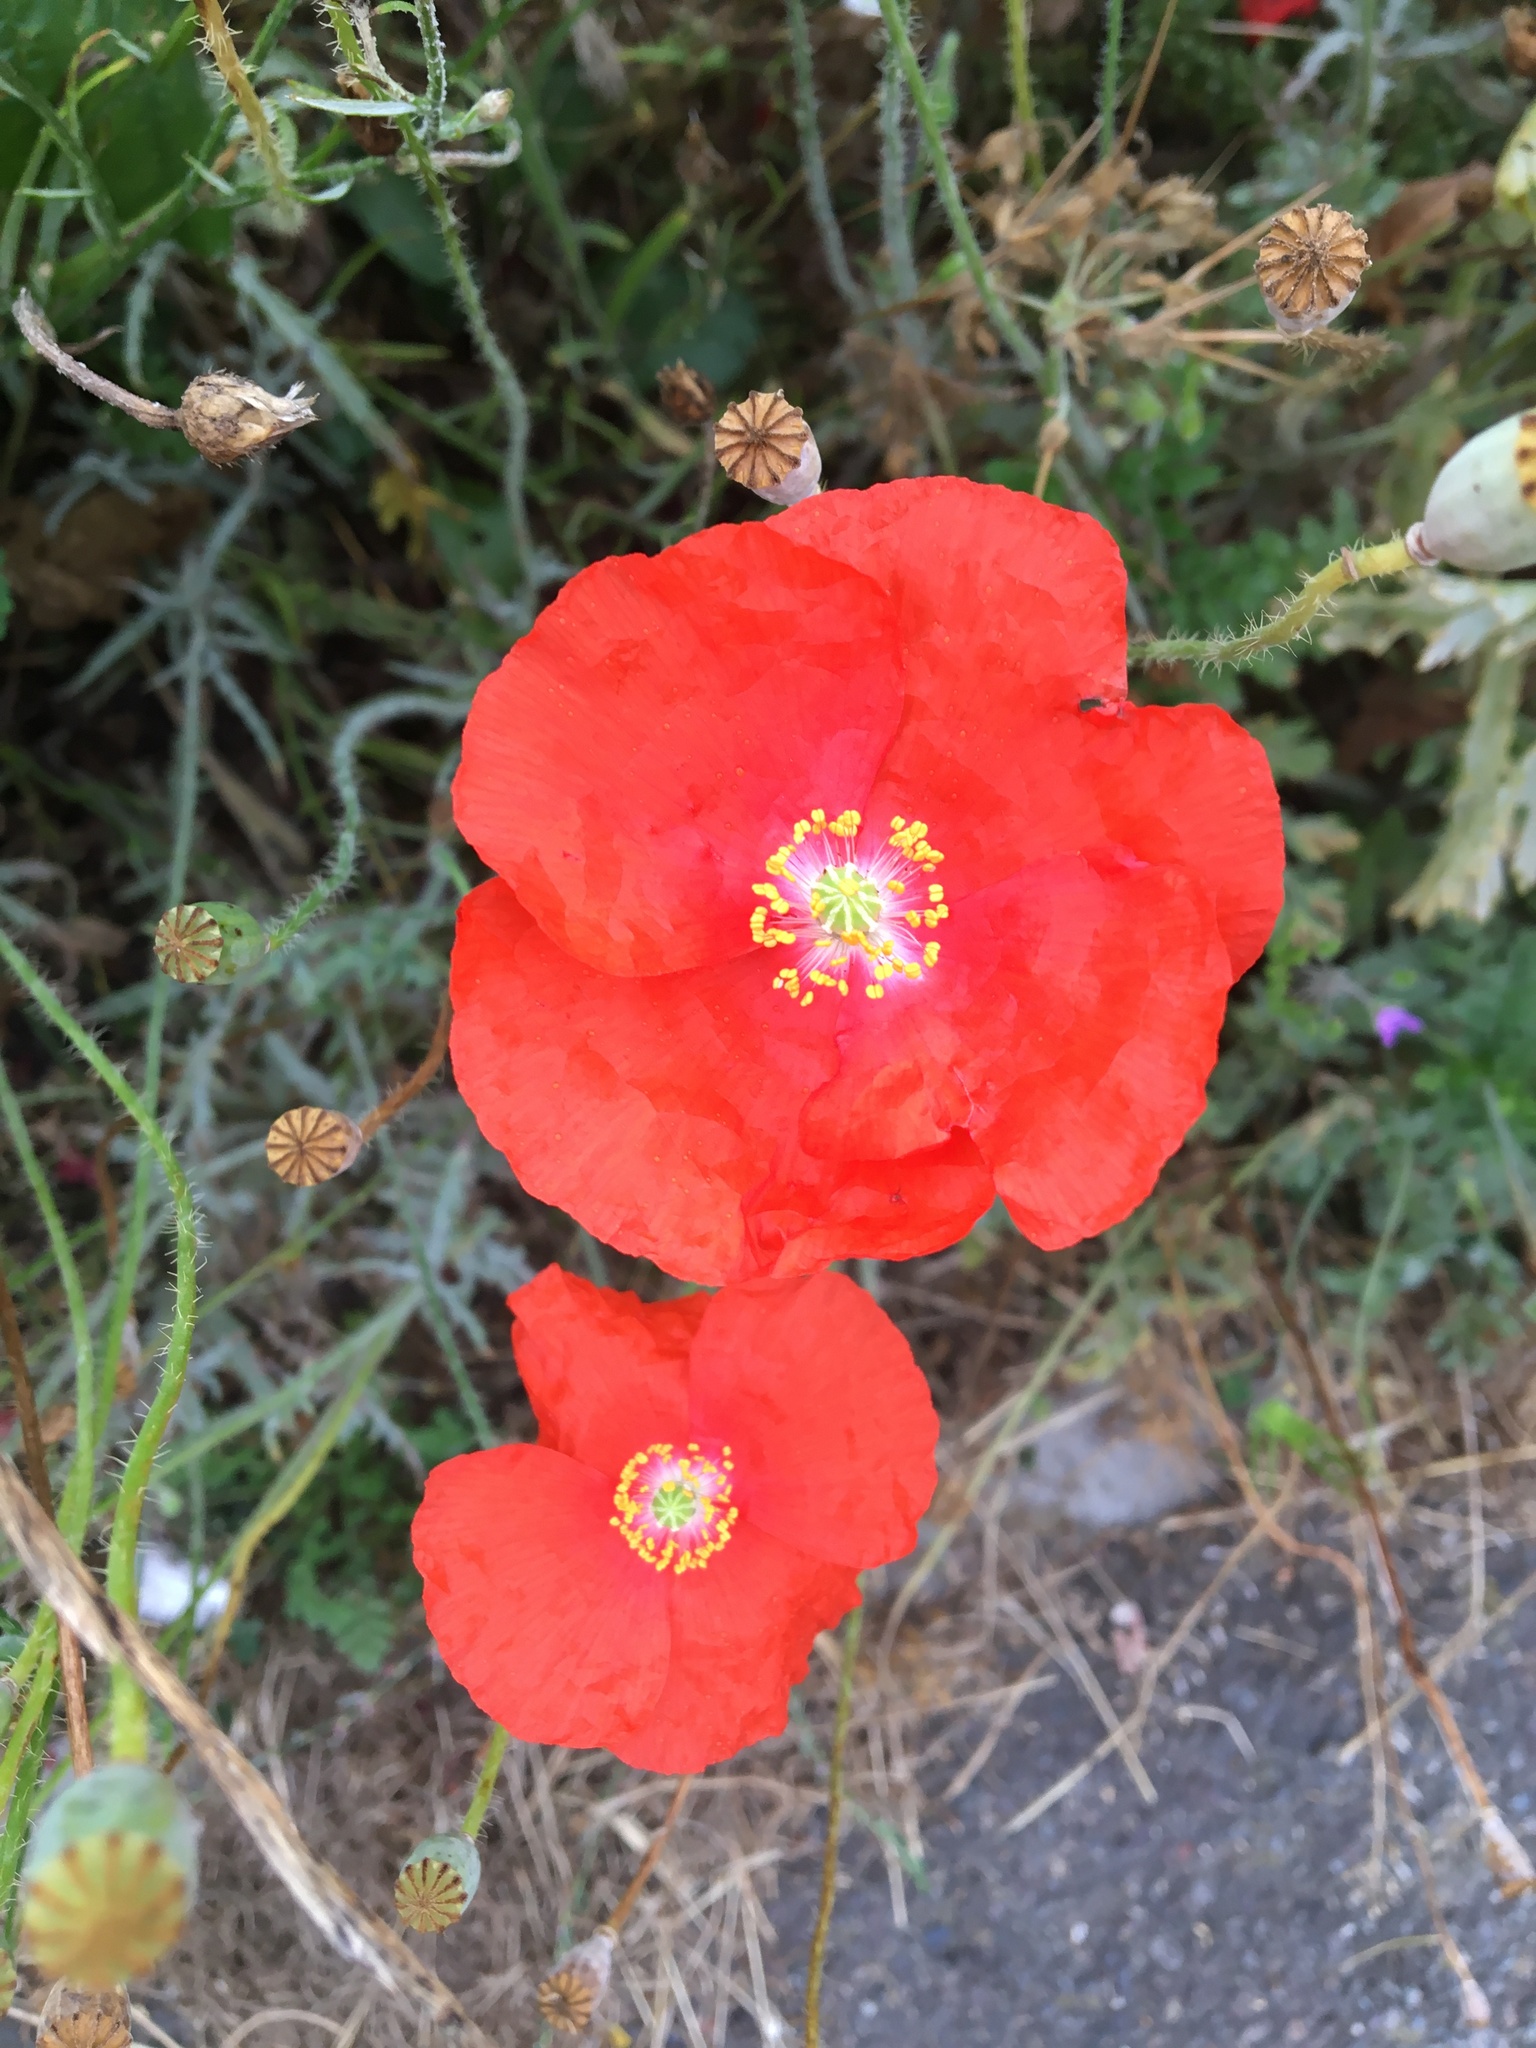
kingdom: Plantae
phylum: Tracheophyta
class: Magnoliopsida
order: Ranunculales
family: Papaveraceae
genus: Papaver
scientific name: Papaver rhoeas
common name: Corn poppy
